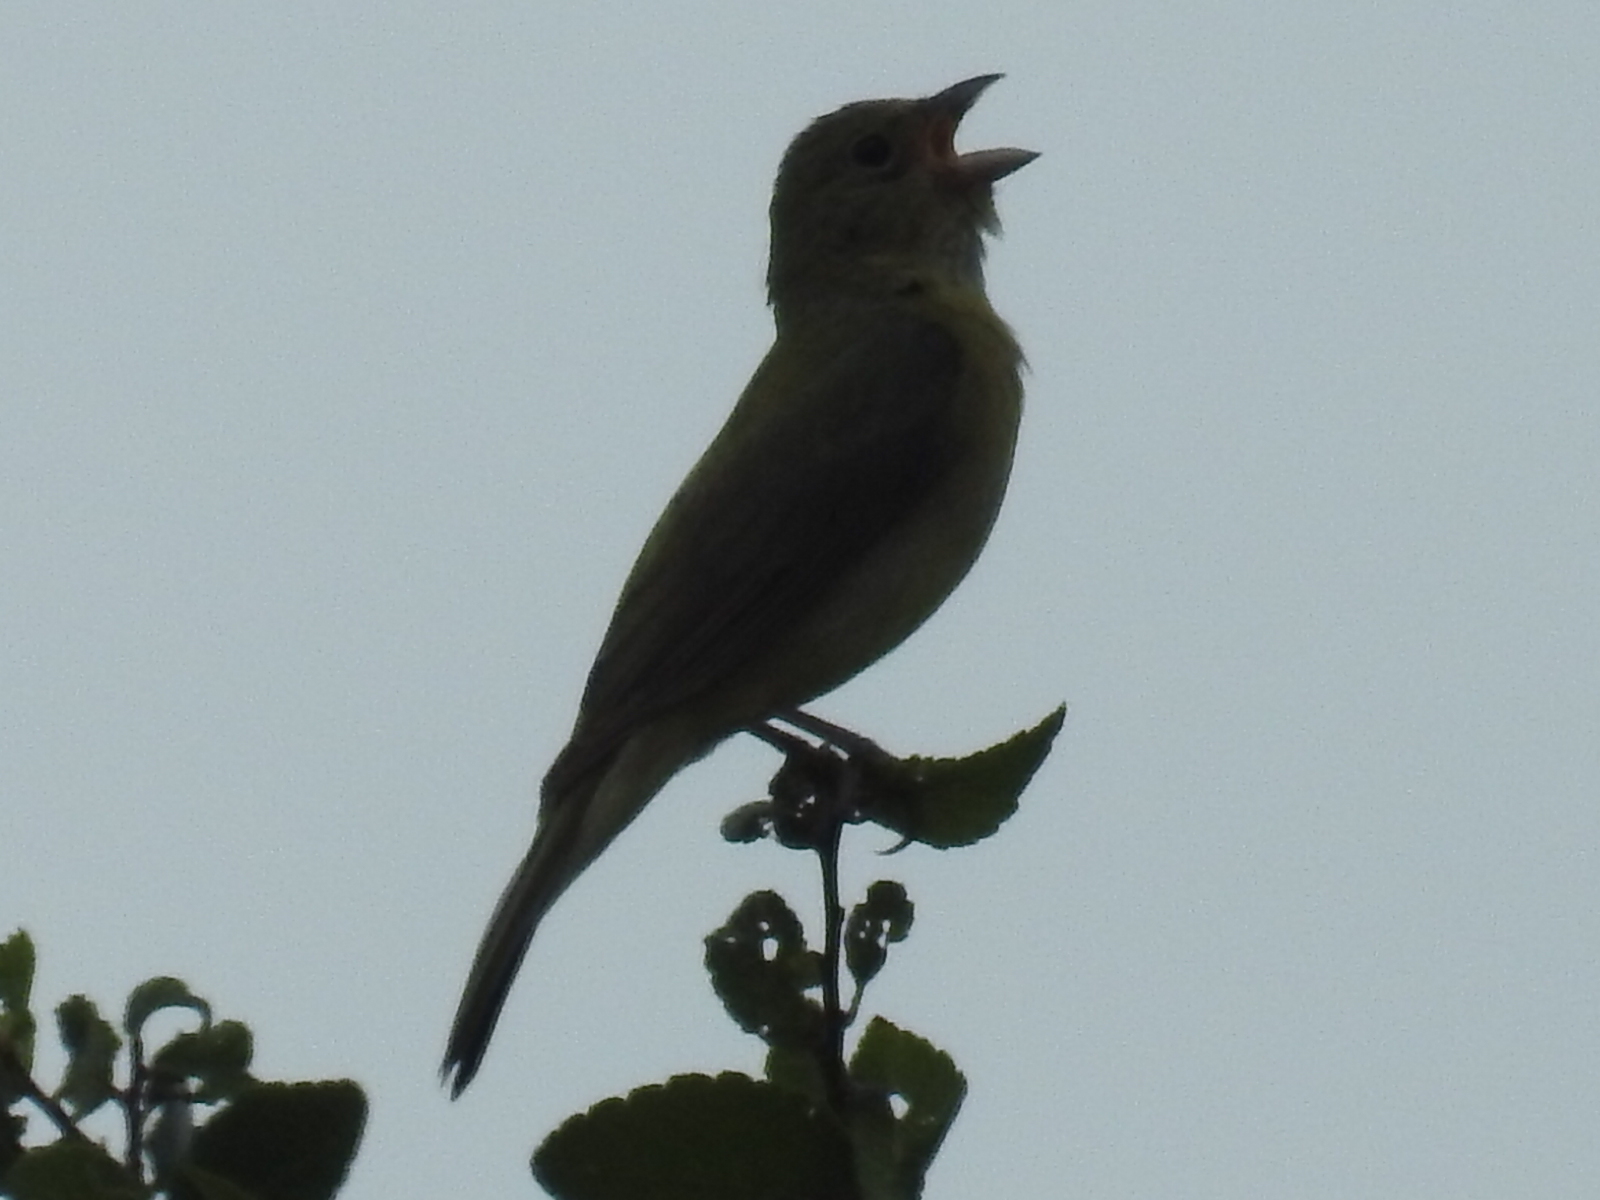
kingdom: Animalia
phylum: Chordata
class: Aves
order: Passeriformes
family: Cardinalidae
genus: Passerina
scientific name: Passerina ciris
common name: Painted bunting
